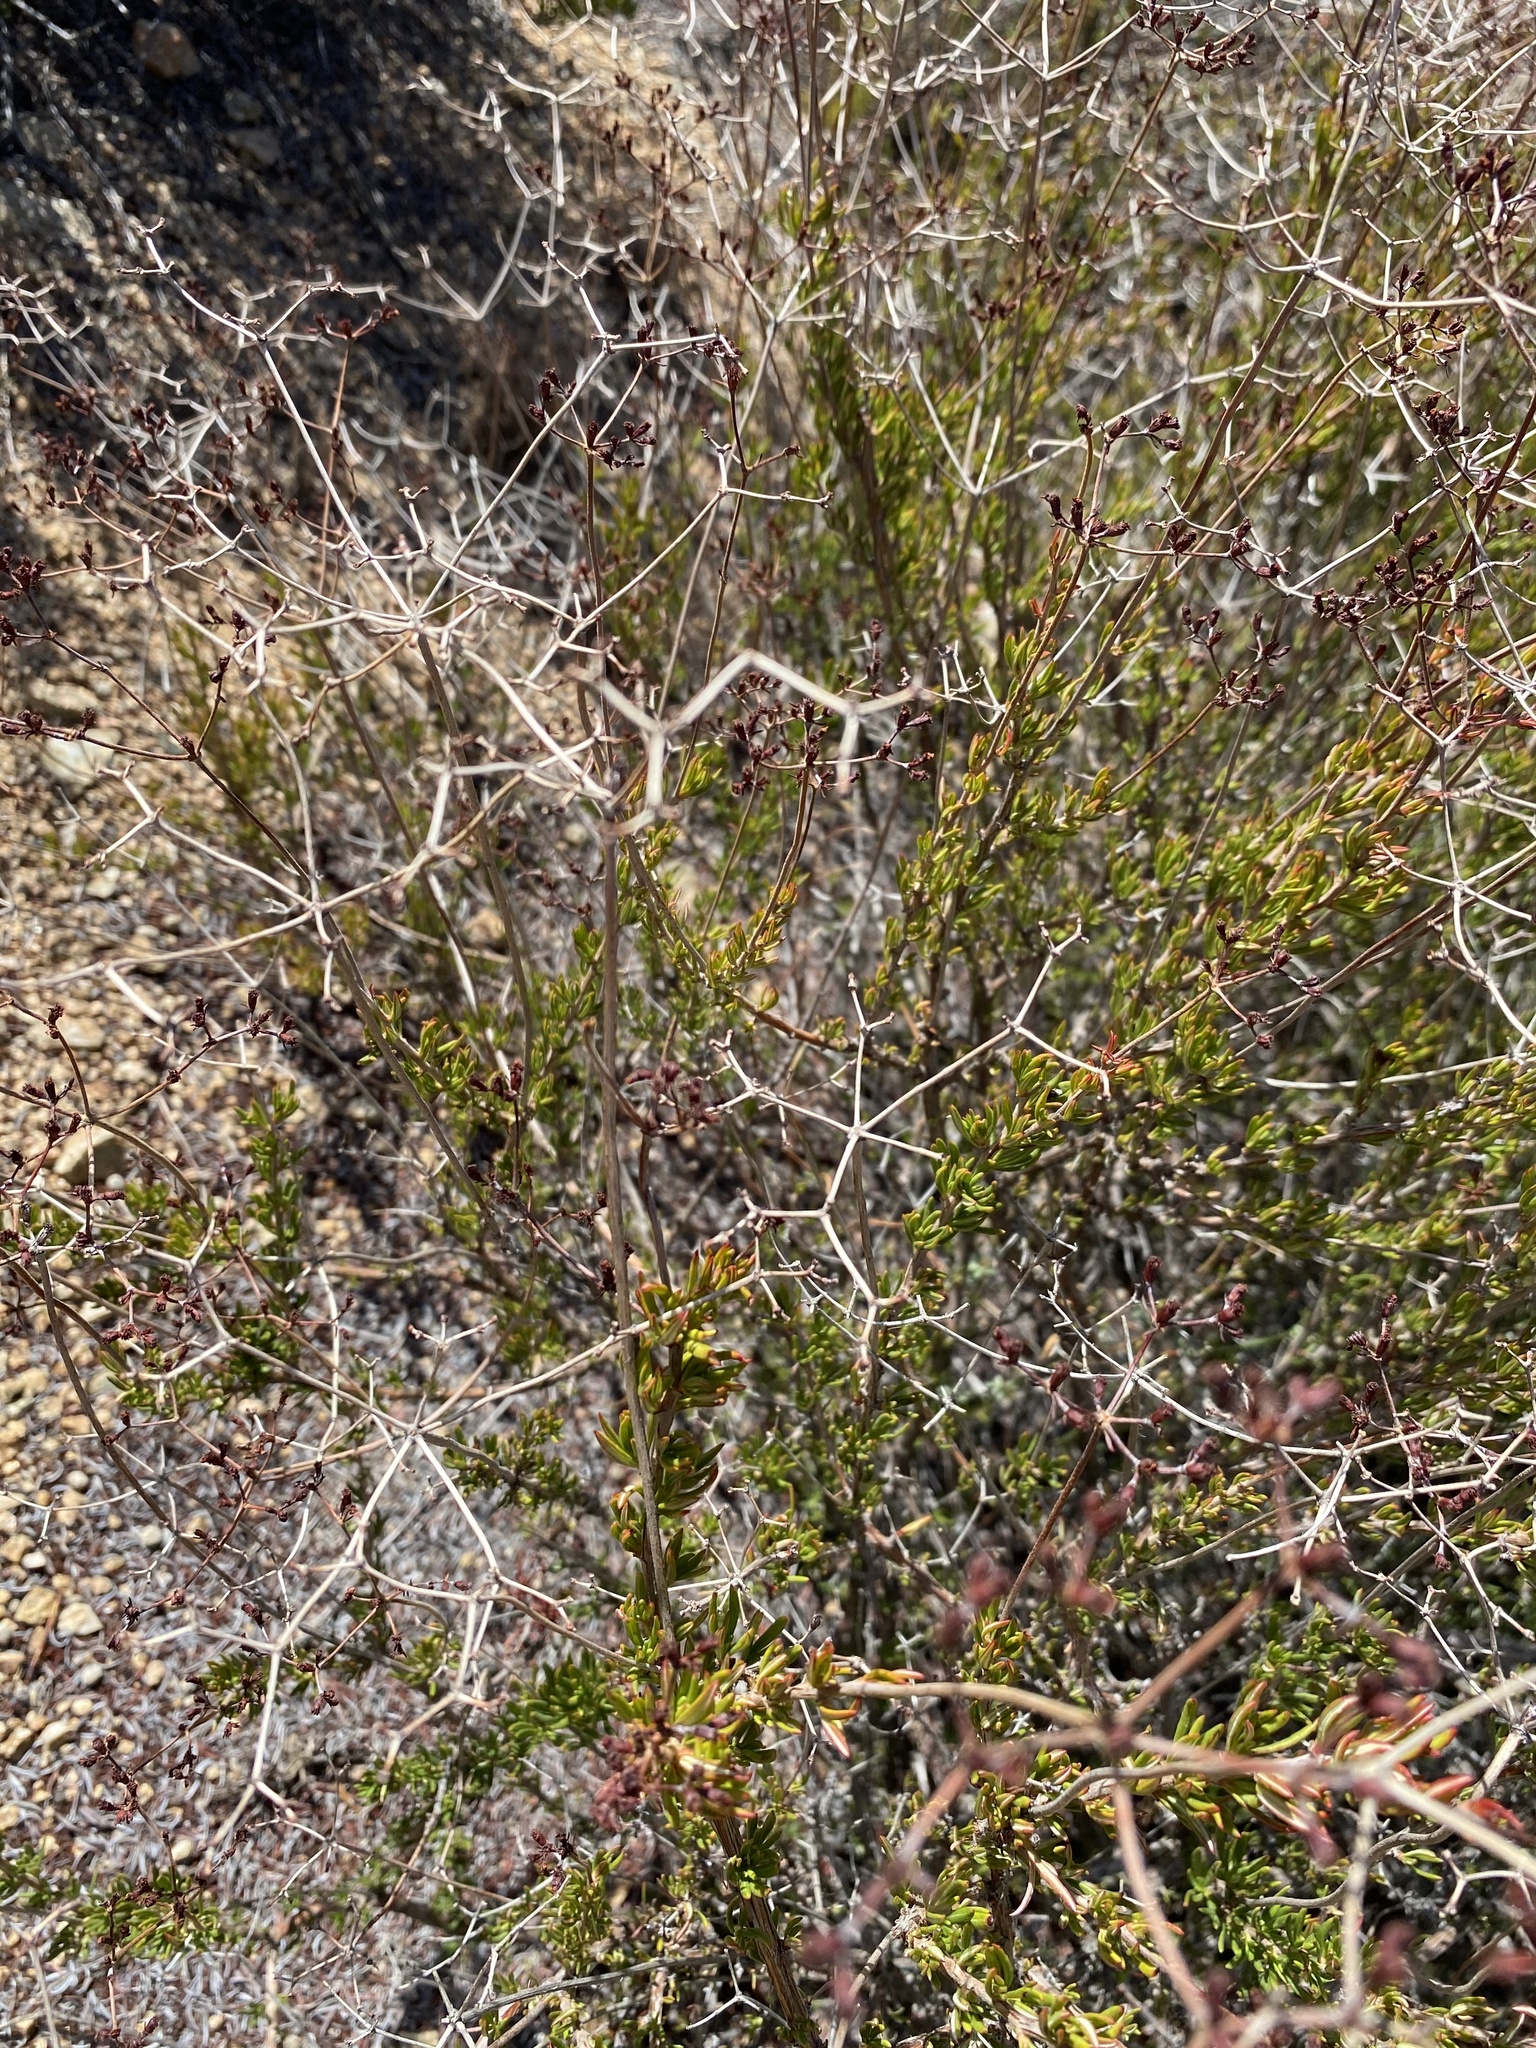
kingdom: Plantae
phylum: Tracheophyta
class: Magnoliopsida
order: Caryophyllales
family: Polygonaceae
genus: Eriogonum
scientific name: Eriogonum fasciculatum
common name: California wild buckwheat
